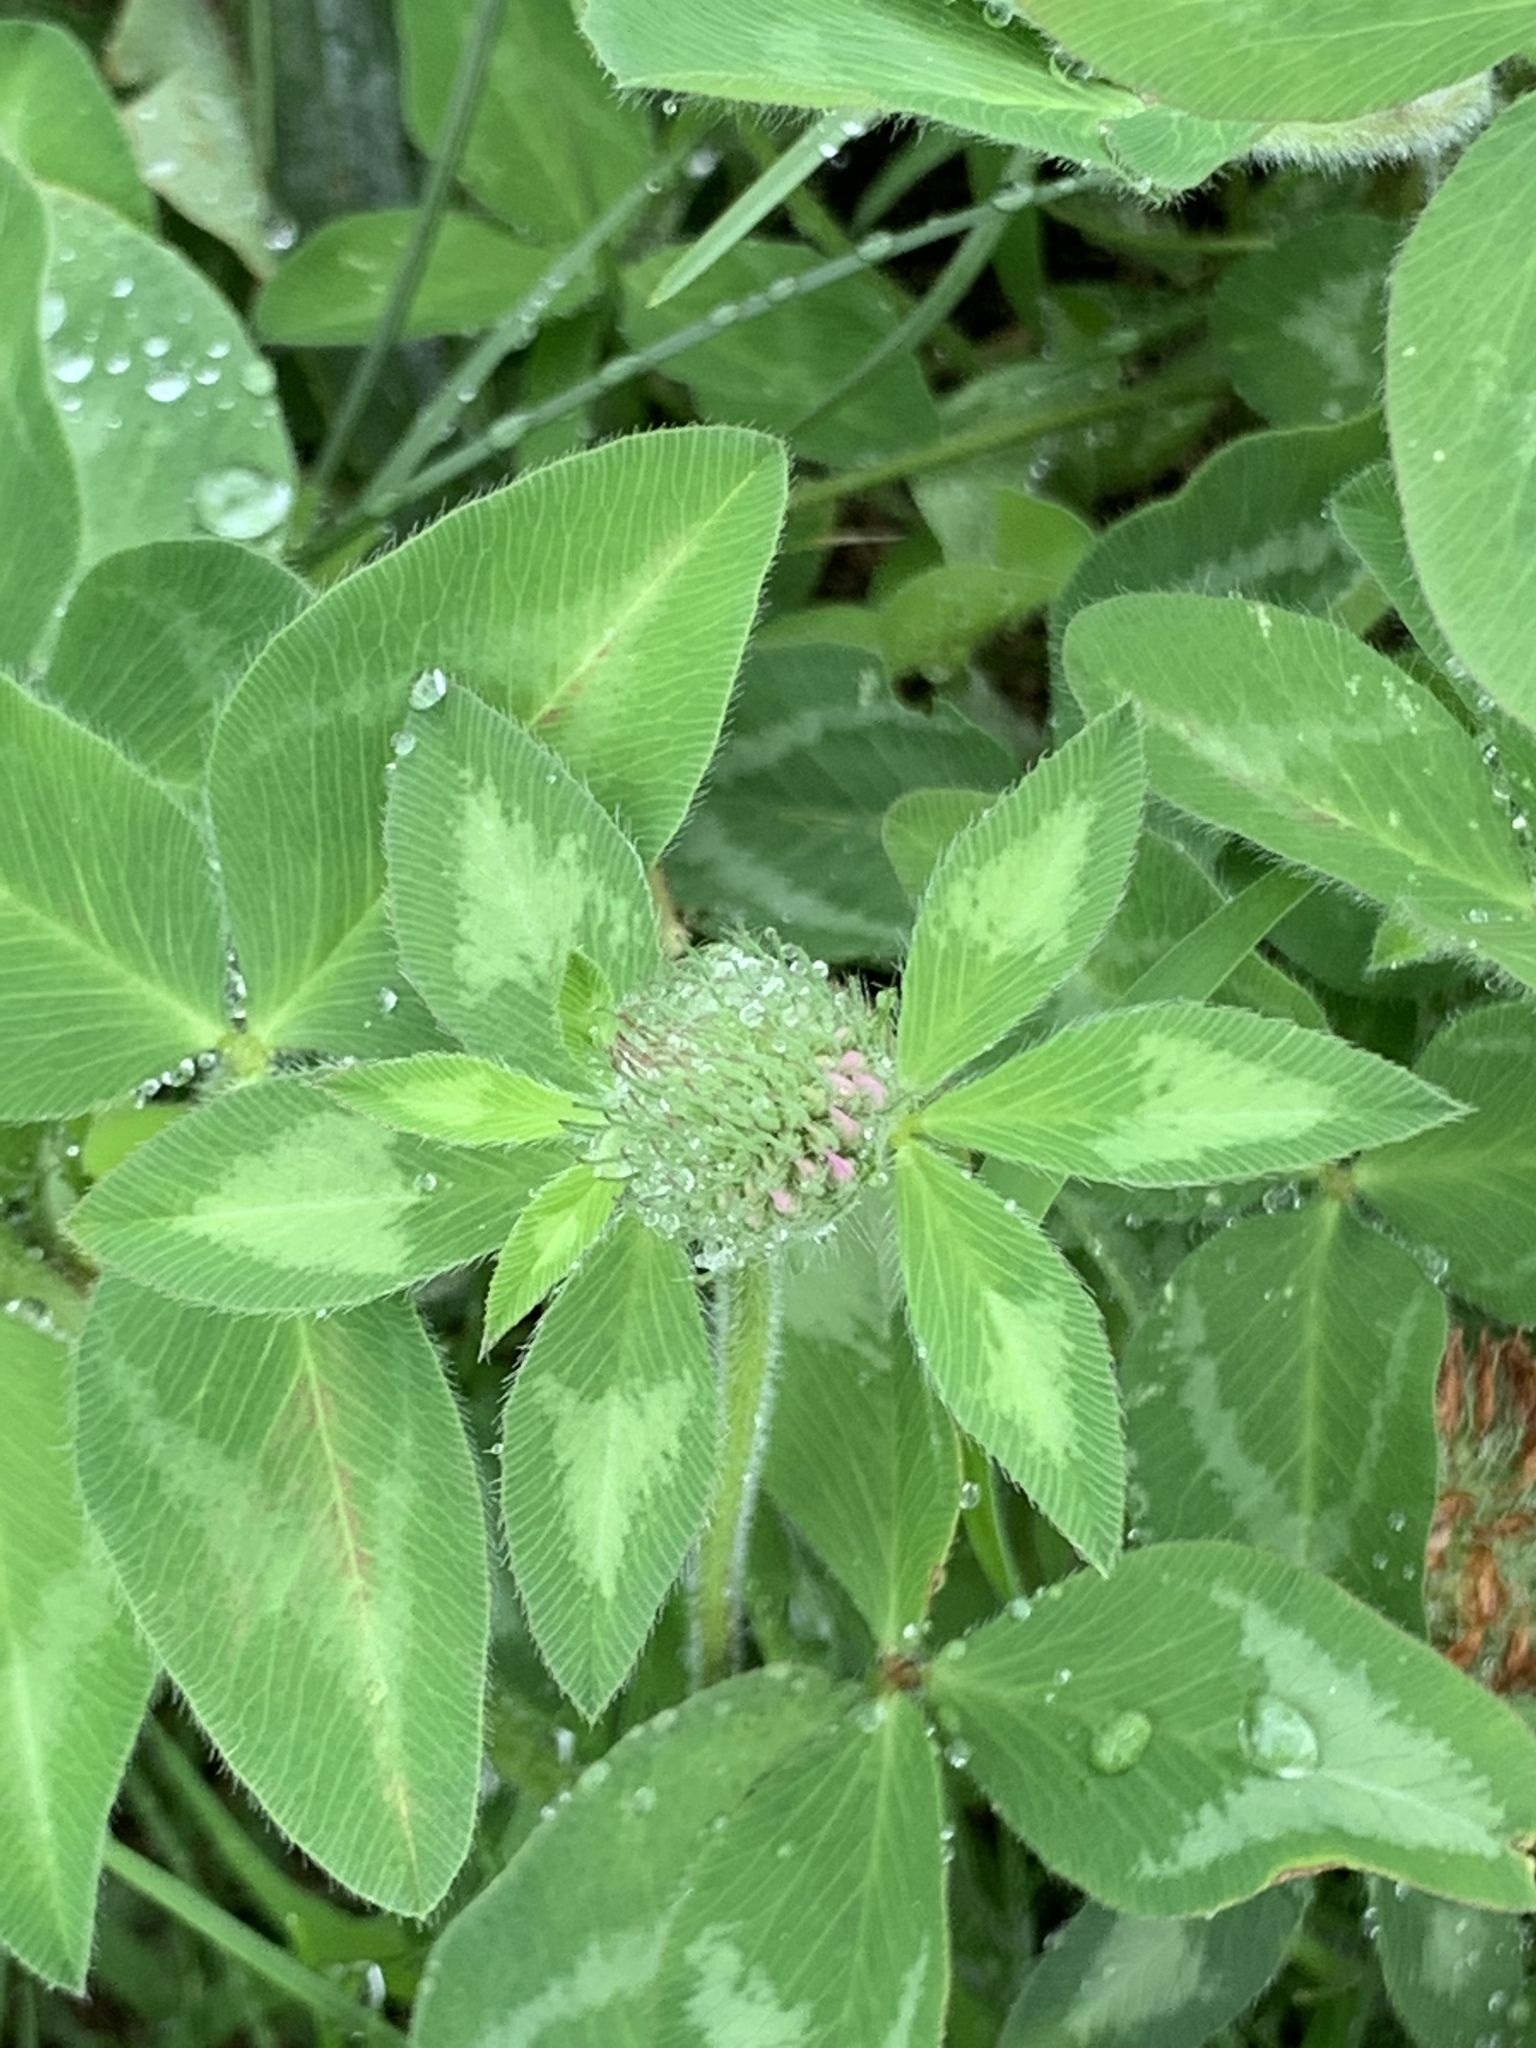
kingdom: Plantae
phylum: Tracheophyta
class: Magnoliopsida
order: Fabales
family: Fabaceae
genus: Trifolium
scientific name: Trifolium pratense
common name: Red clover
